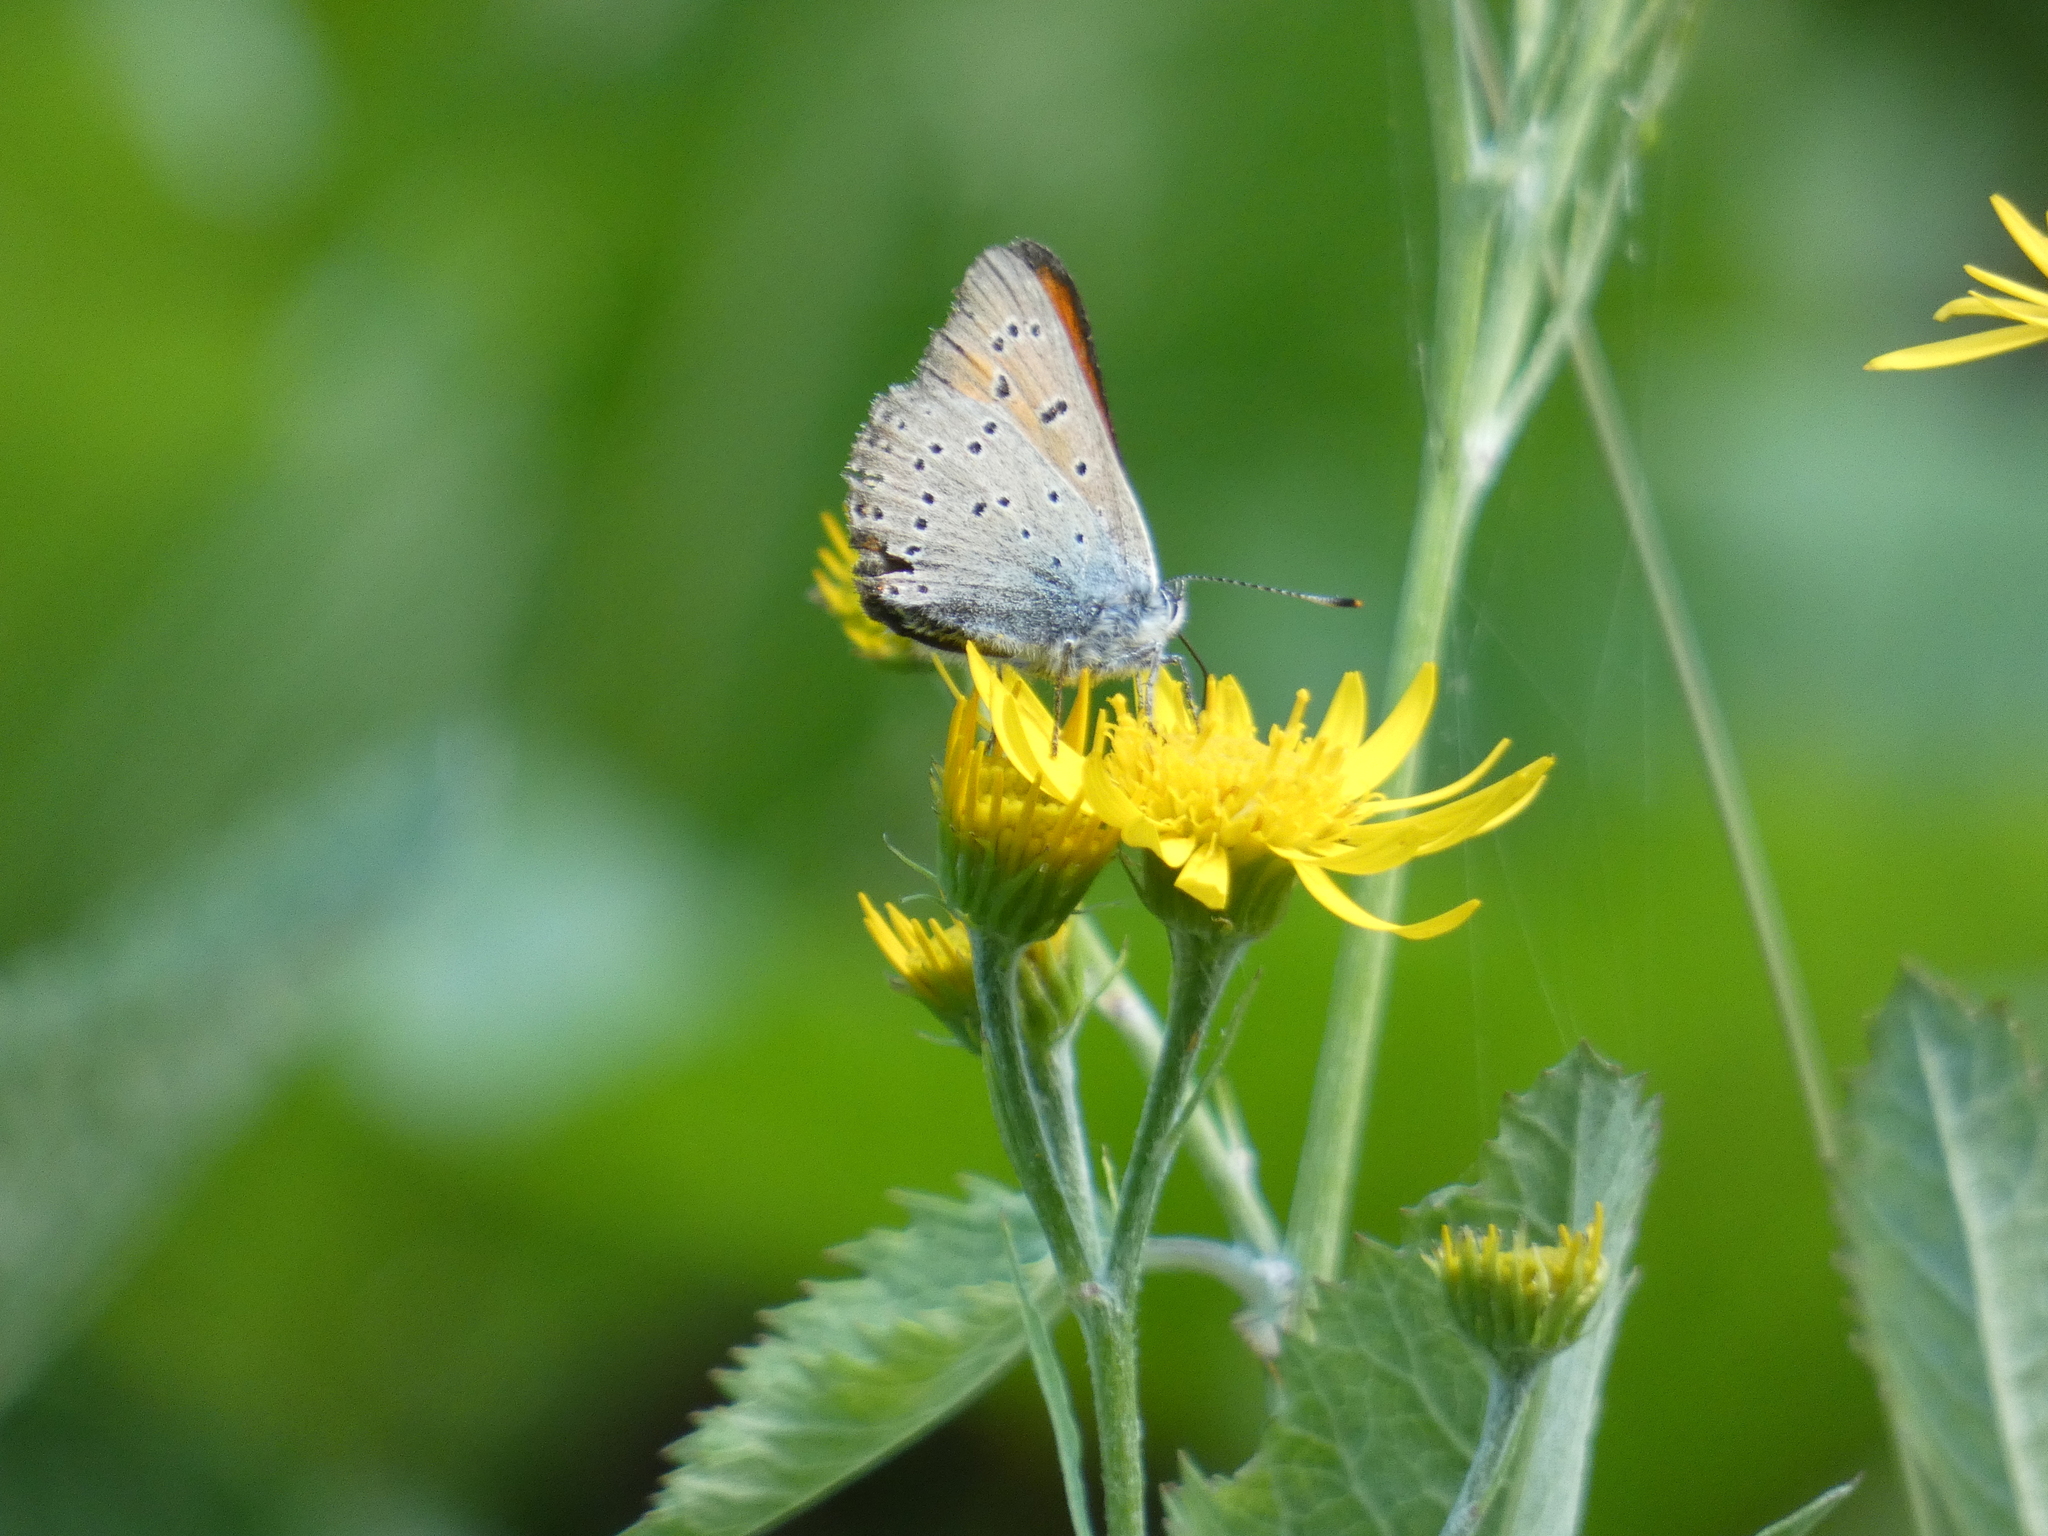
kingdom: Animalia
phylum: Arthropoda
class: Insecta
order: Lepidoptera
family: Lycaenidae
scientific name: Lycaenidae
